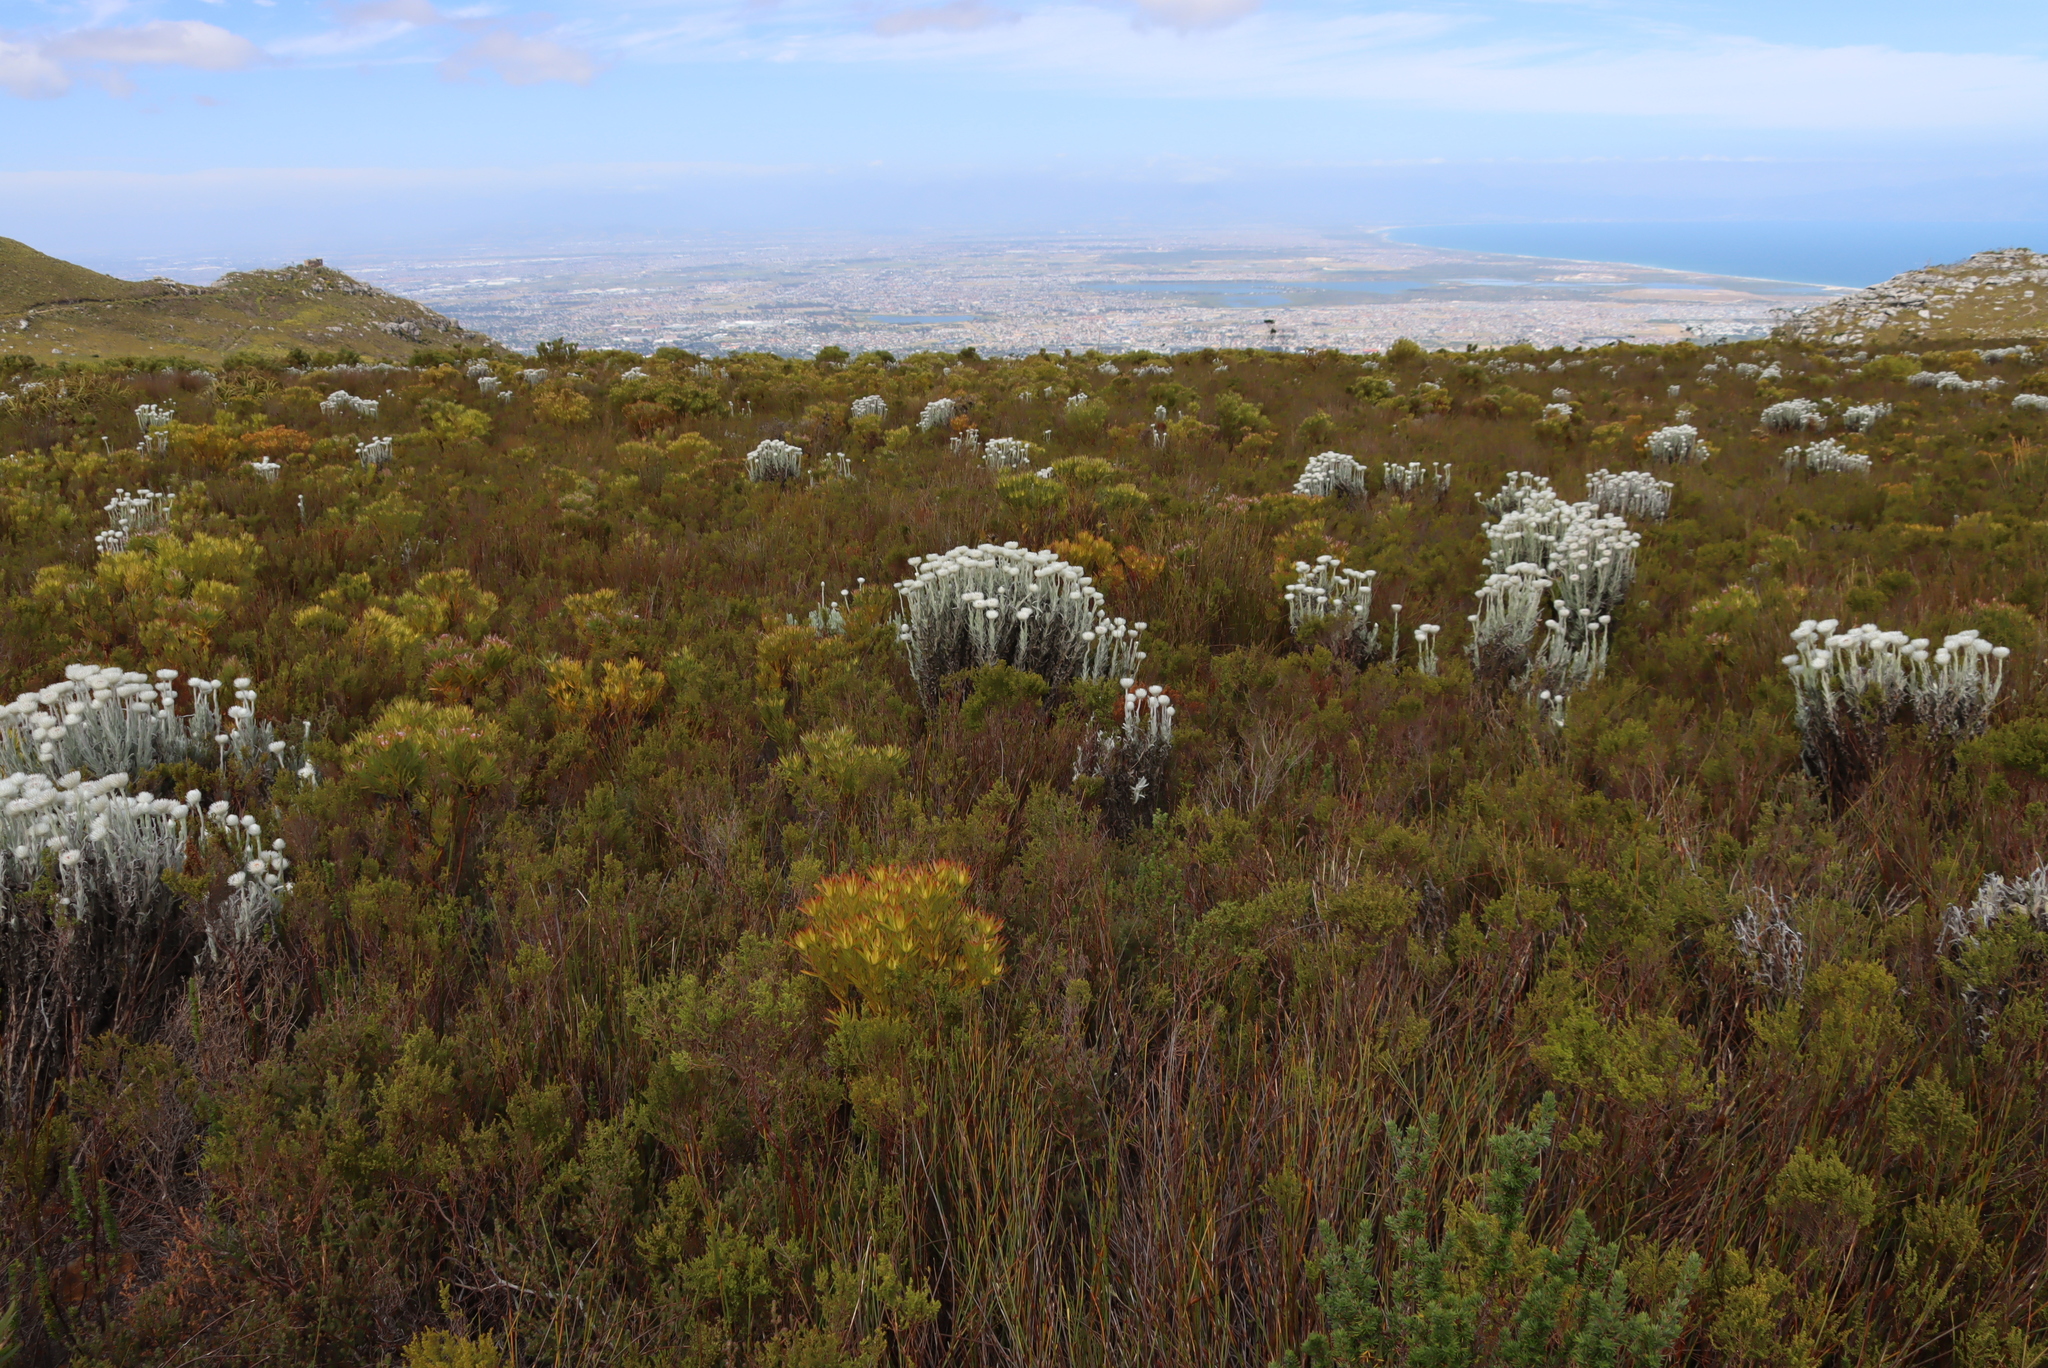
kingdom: Plantae
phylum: Tracheophyta
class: Magnoliopsida
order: Asterales
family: Asteraceae
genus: Syncarpha
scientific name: Syncarpha vestita
